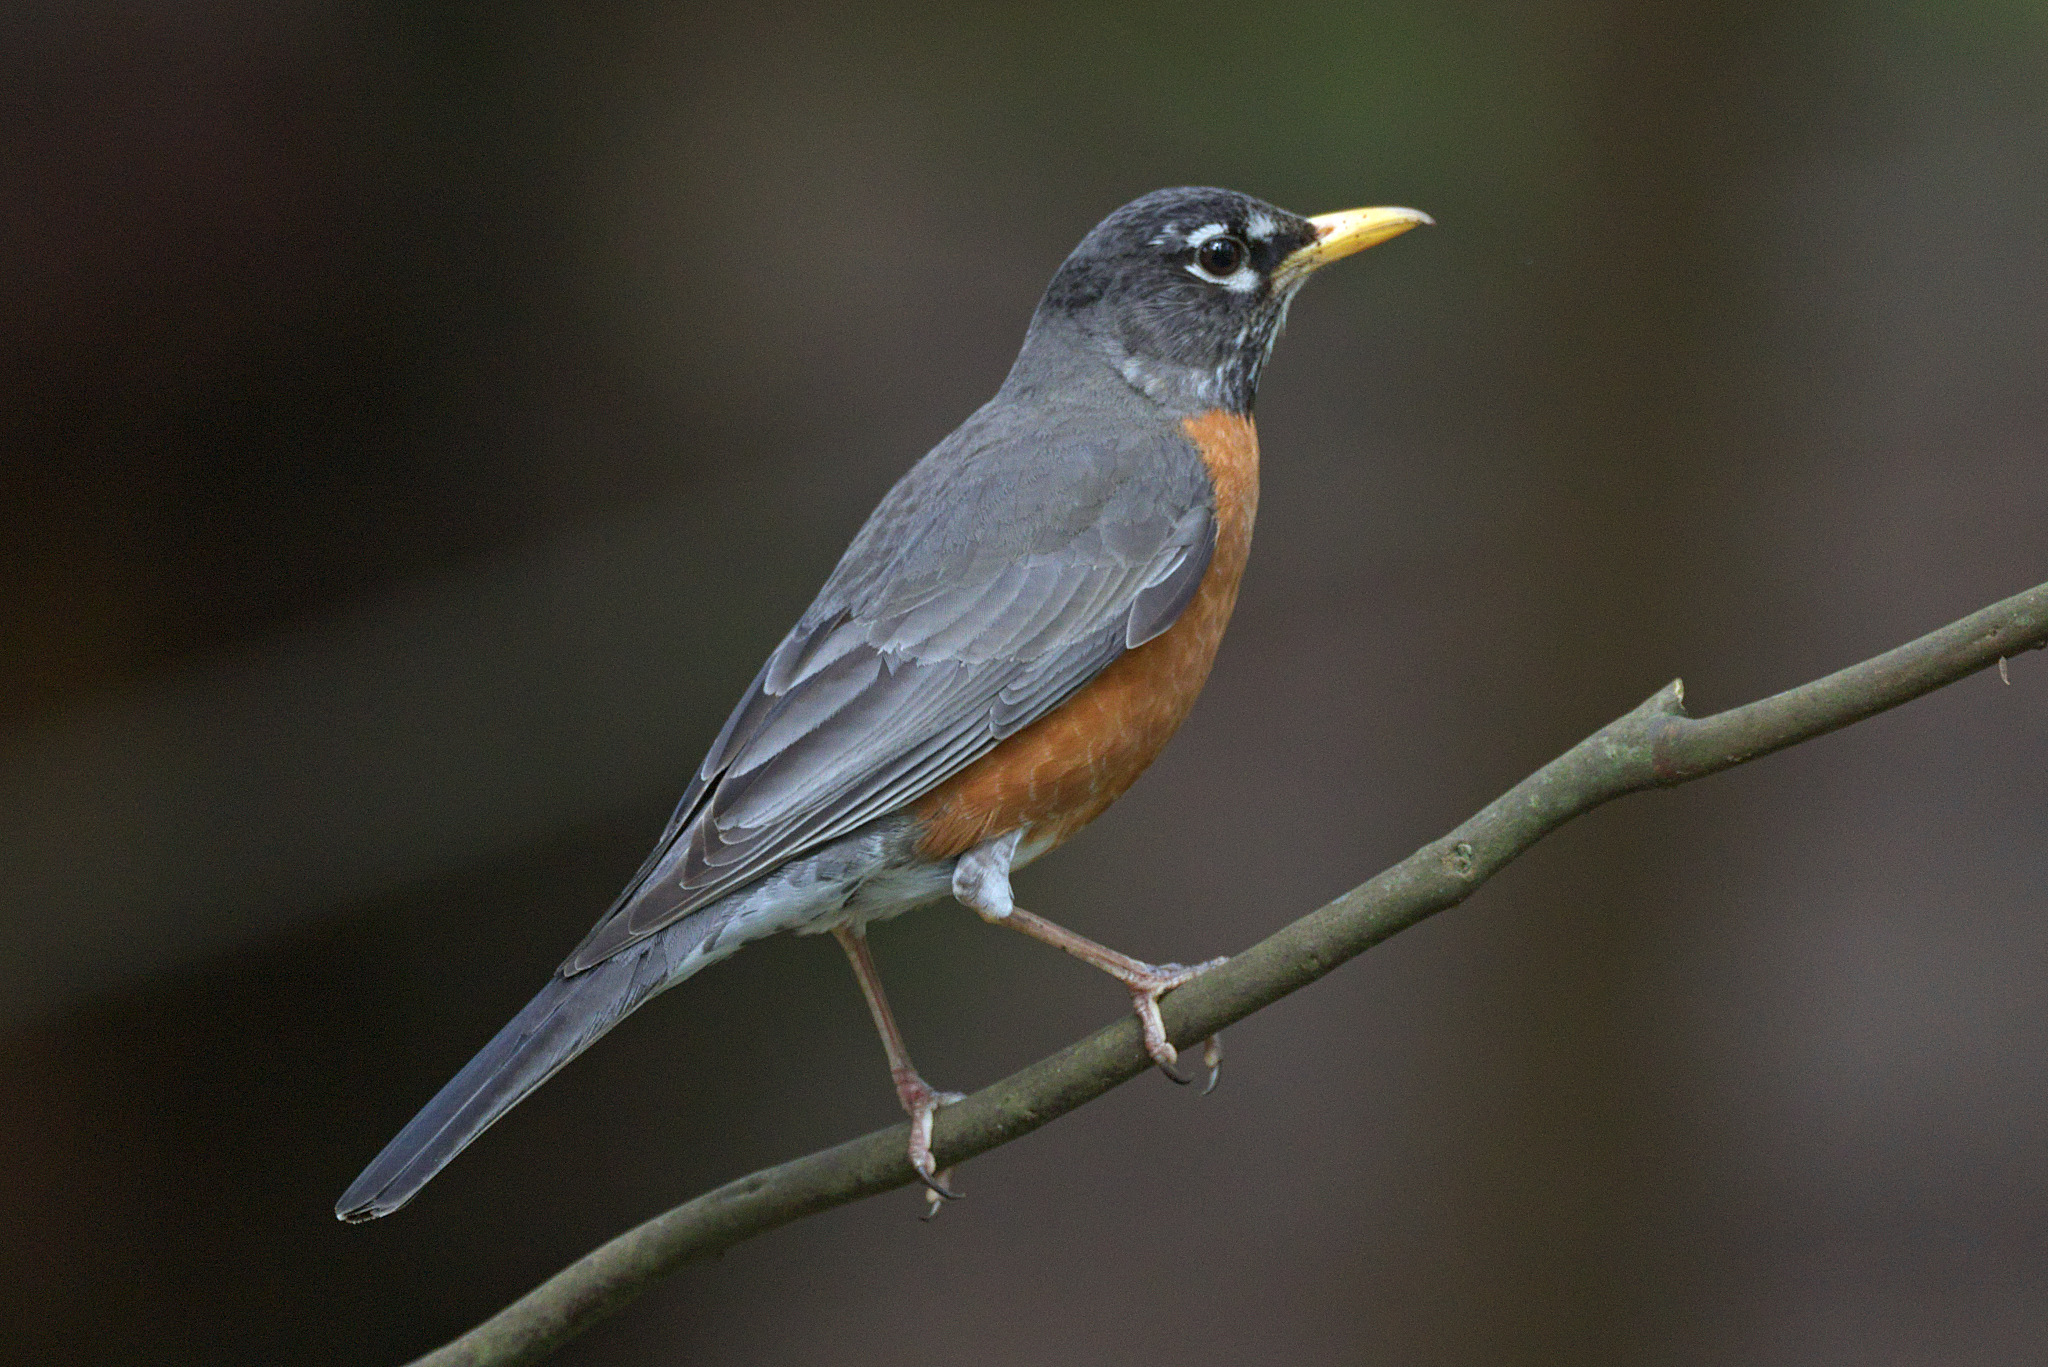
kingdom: Animalia
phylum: Chordata
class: Aves
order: Passeriformes
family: Turdidae
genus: Turdus
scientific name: Turdus migratorius
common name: American robin
